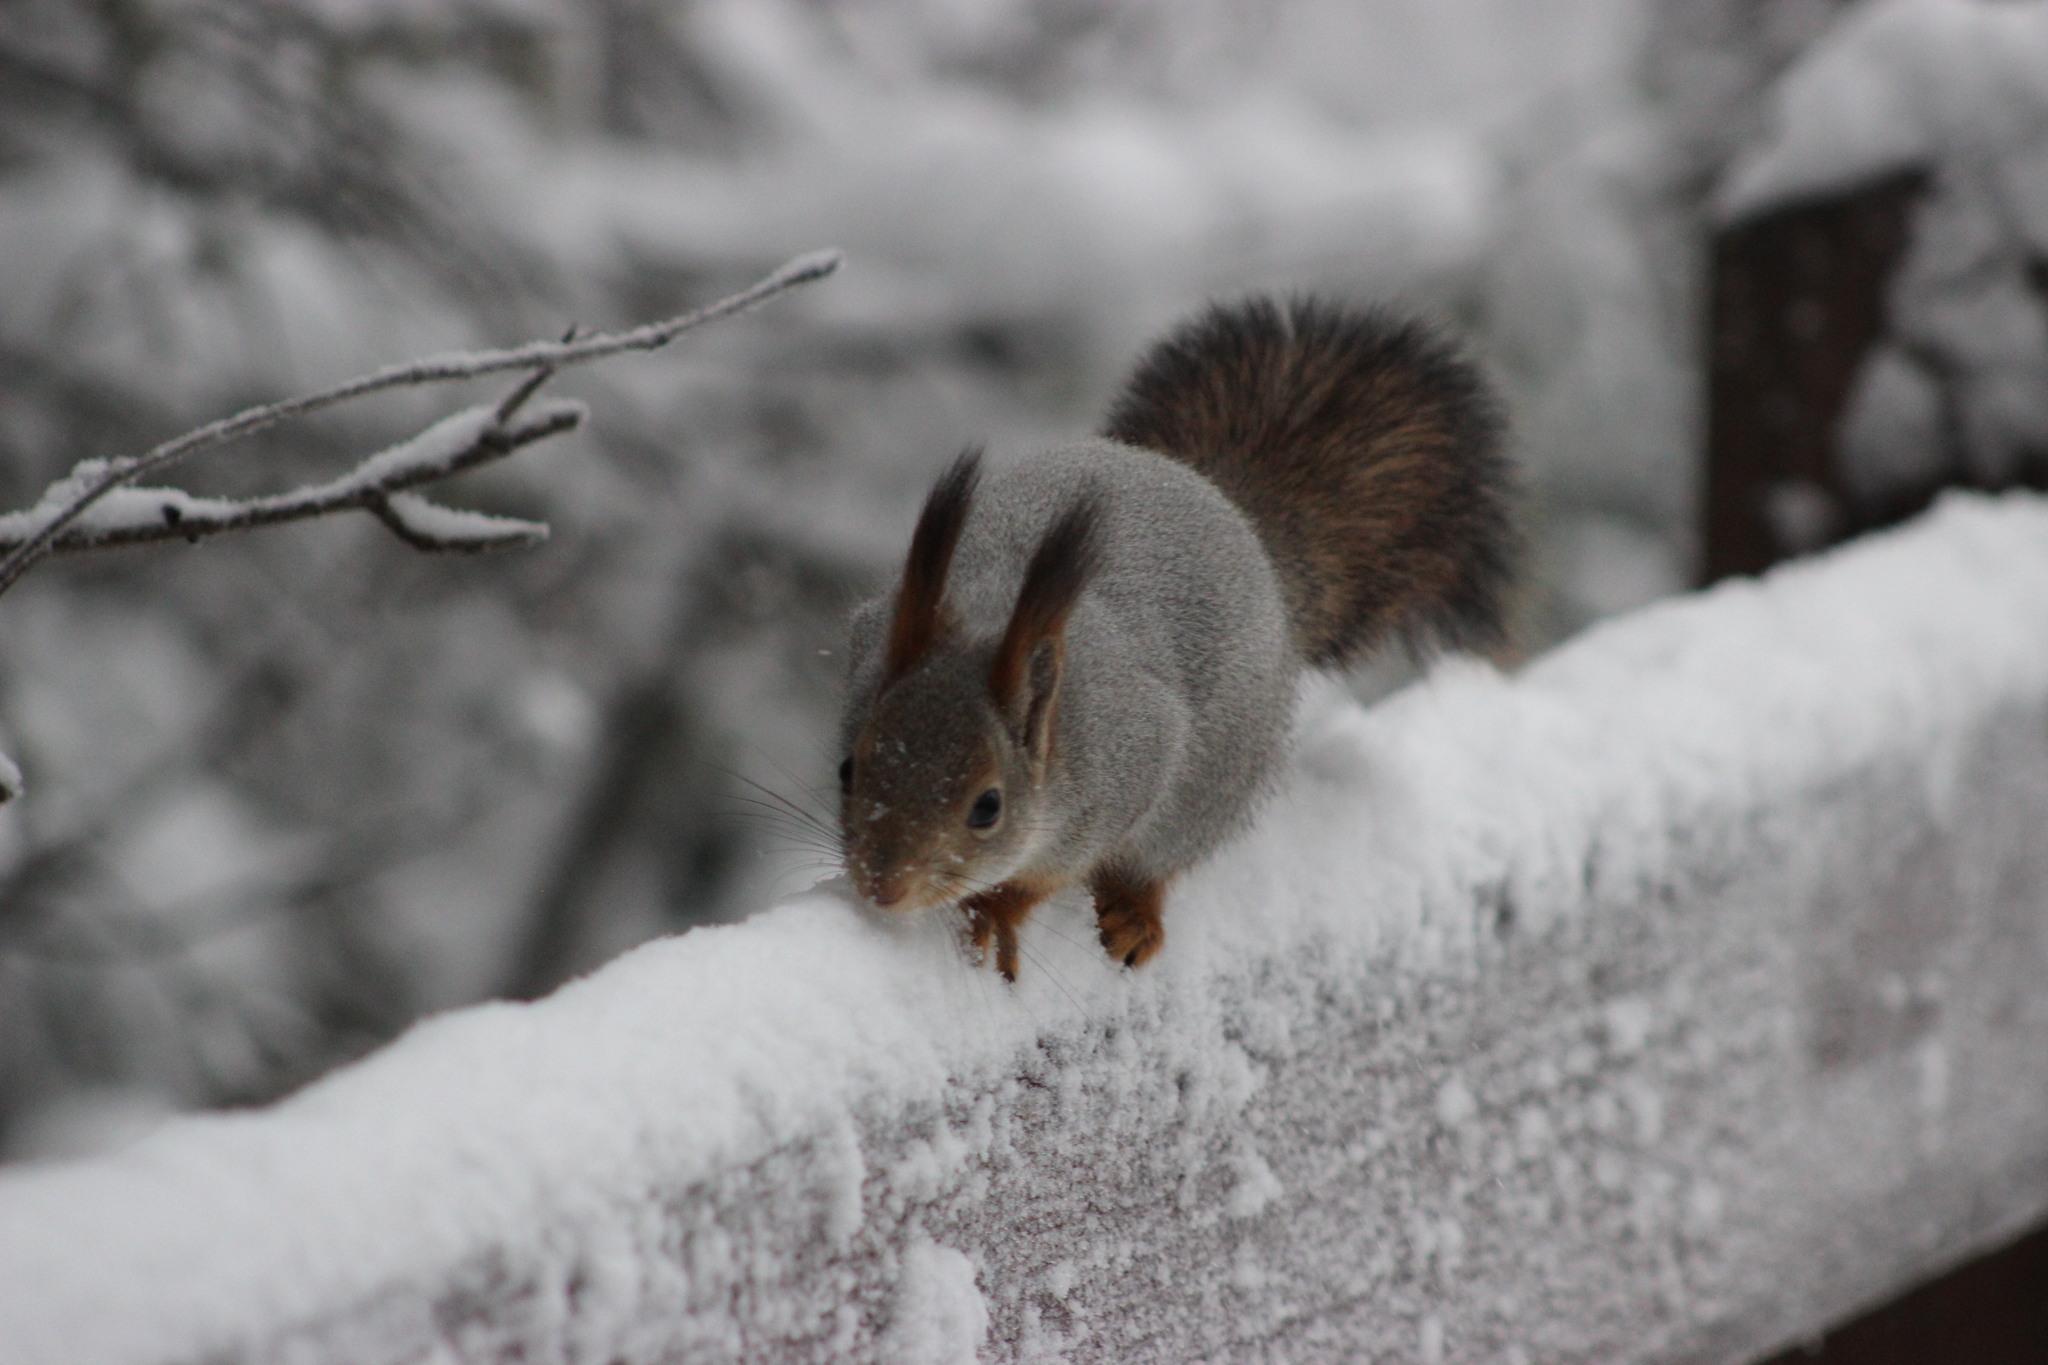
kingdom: Animalia
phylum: Chordata
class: Mammalia
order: Rodentia
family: Sciuridae
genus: Sciurus
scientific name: Sciurus vulgaris
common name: Eurasian red squirrel
